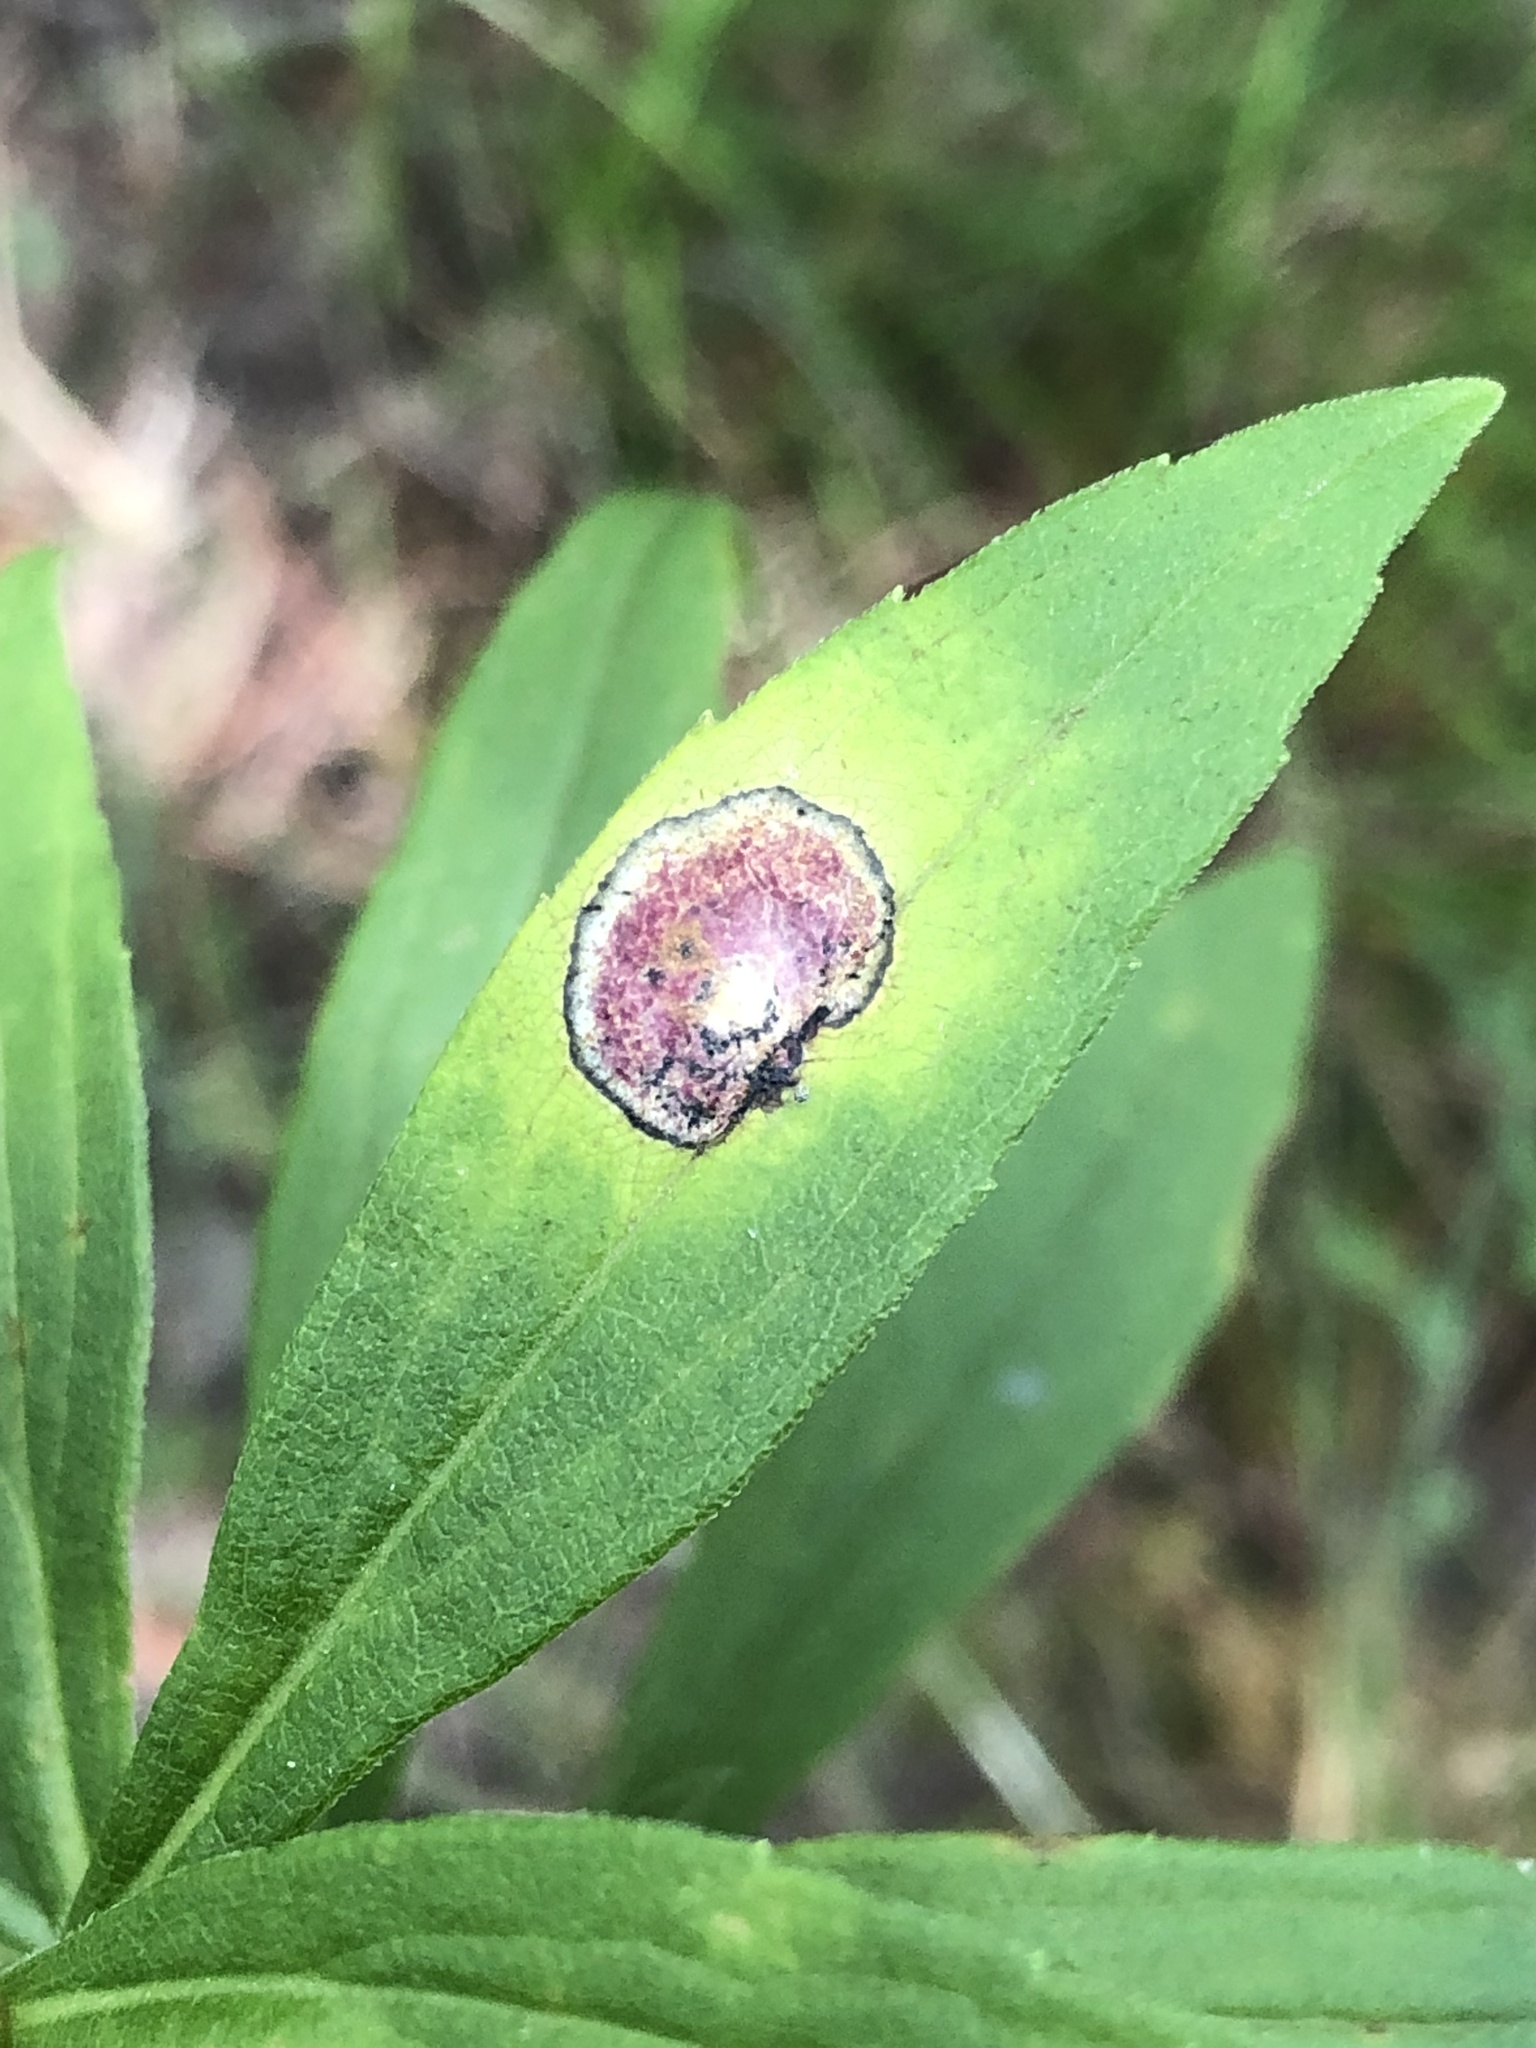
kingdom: Animalia
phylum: Arthropoda
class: Insecta
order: Diptera
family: Cecidomyiidae
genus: Asteromyia
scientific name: Asteromyia carbonifera
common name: Carbonifera goldenrod gall midge
